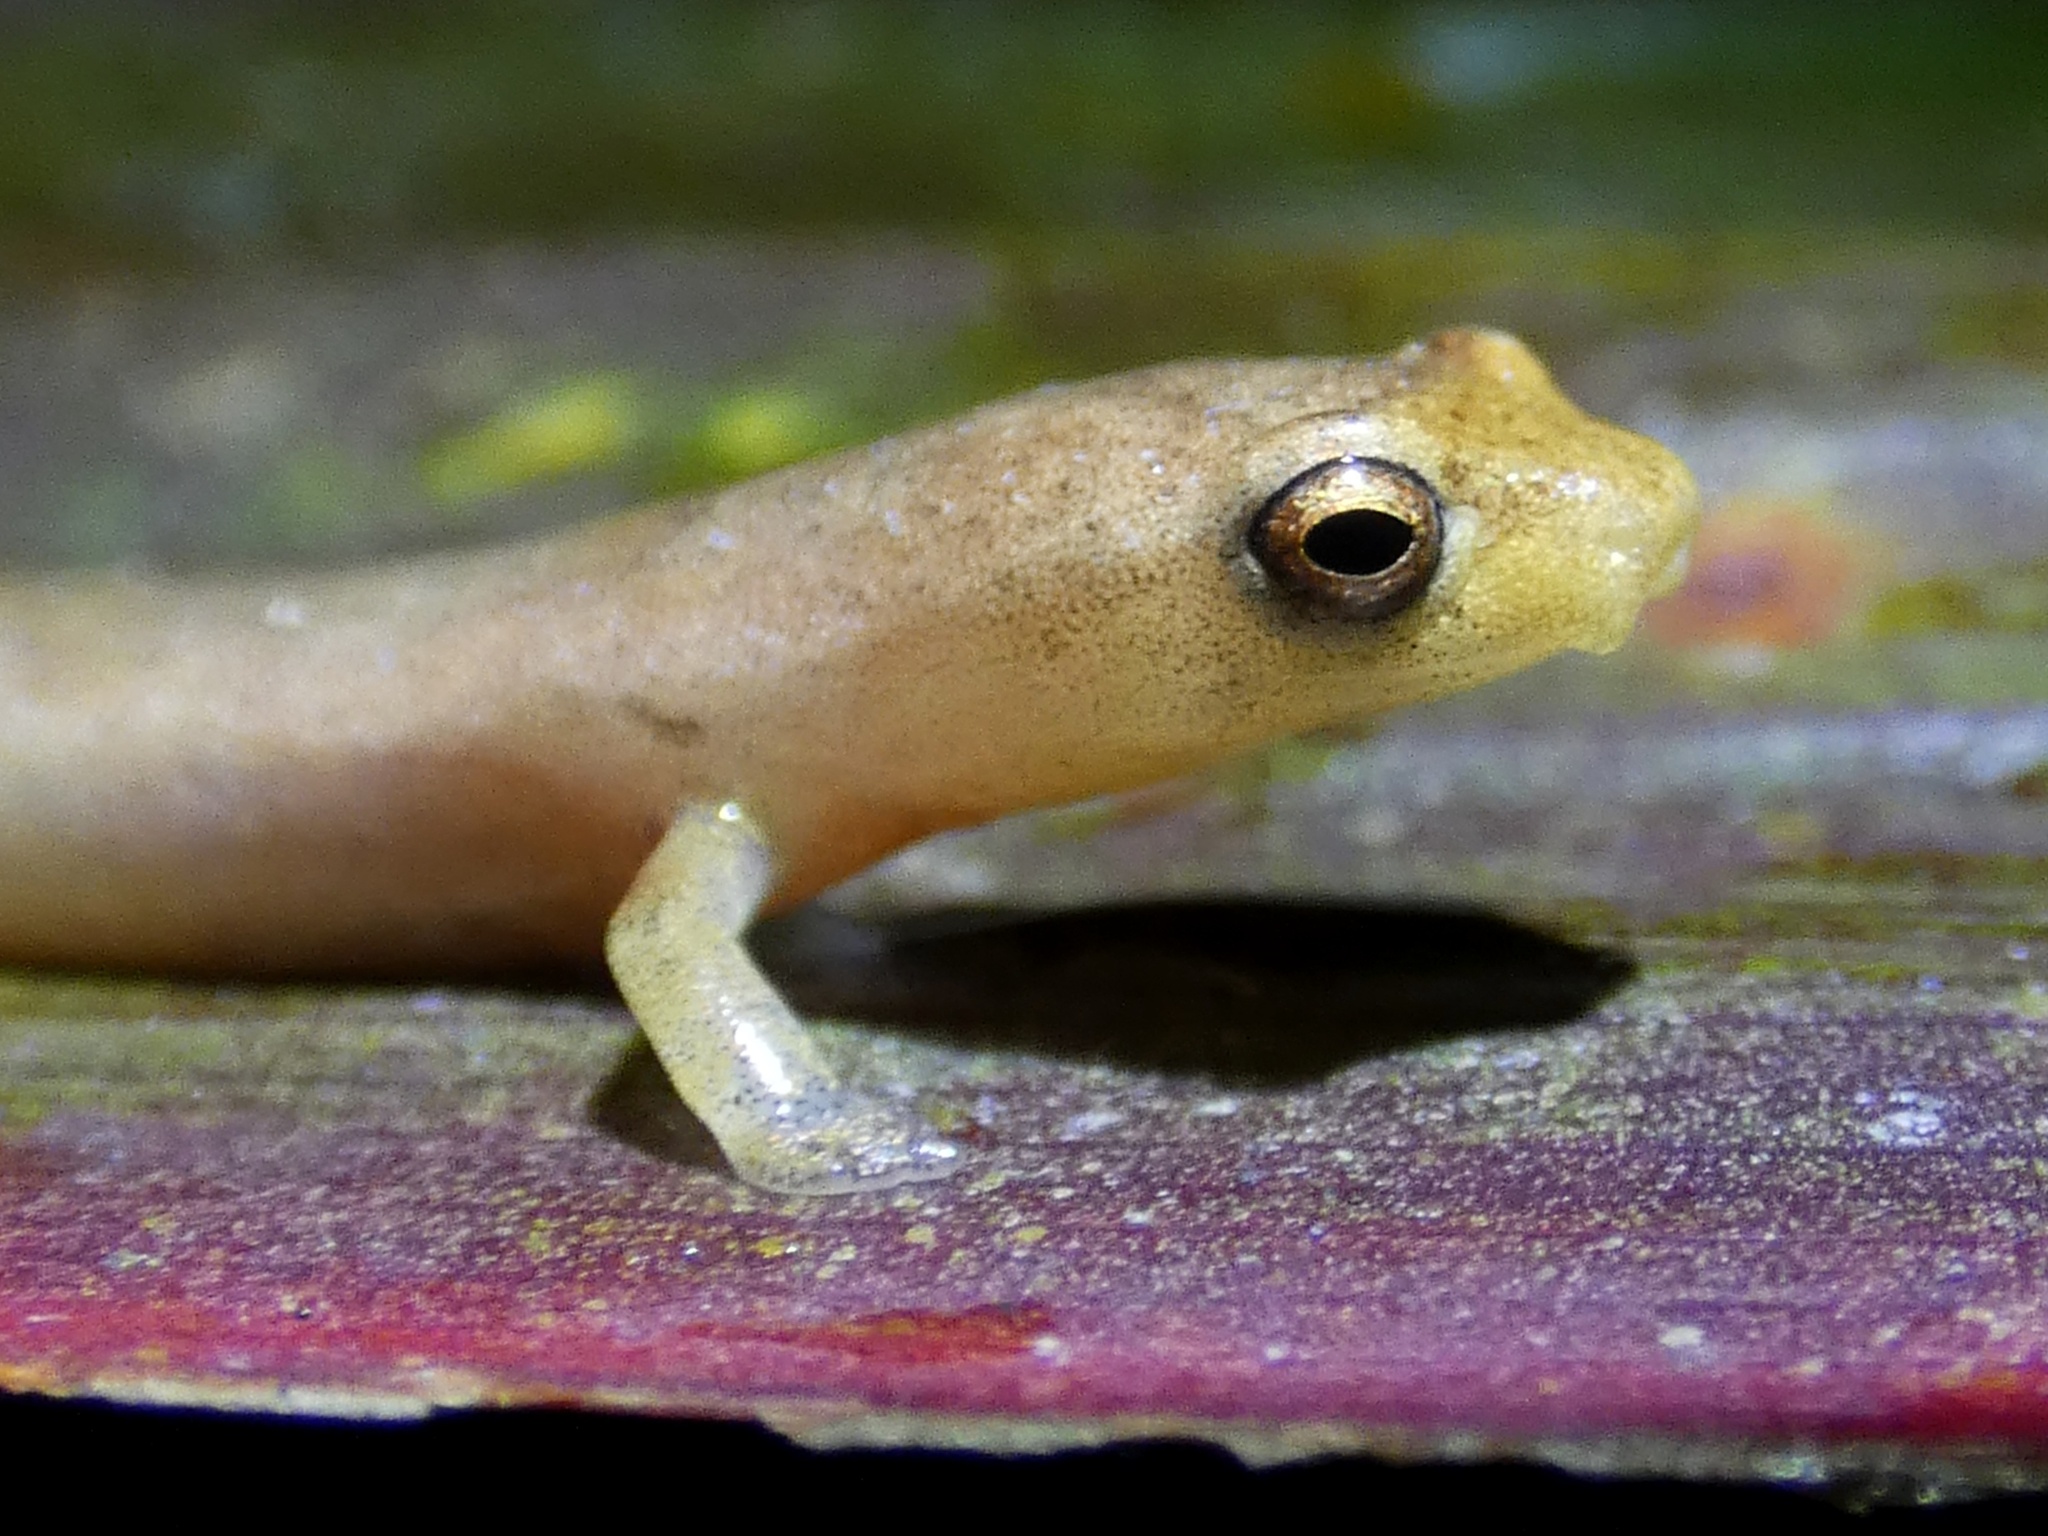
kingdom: Animalia
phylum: Chordata
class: Amphibia
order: Caudata
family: Plethodontidae
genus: Bolitoglossa
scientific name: Bolitoglossa cuna
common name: Camp sasardi salamander
